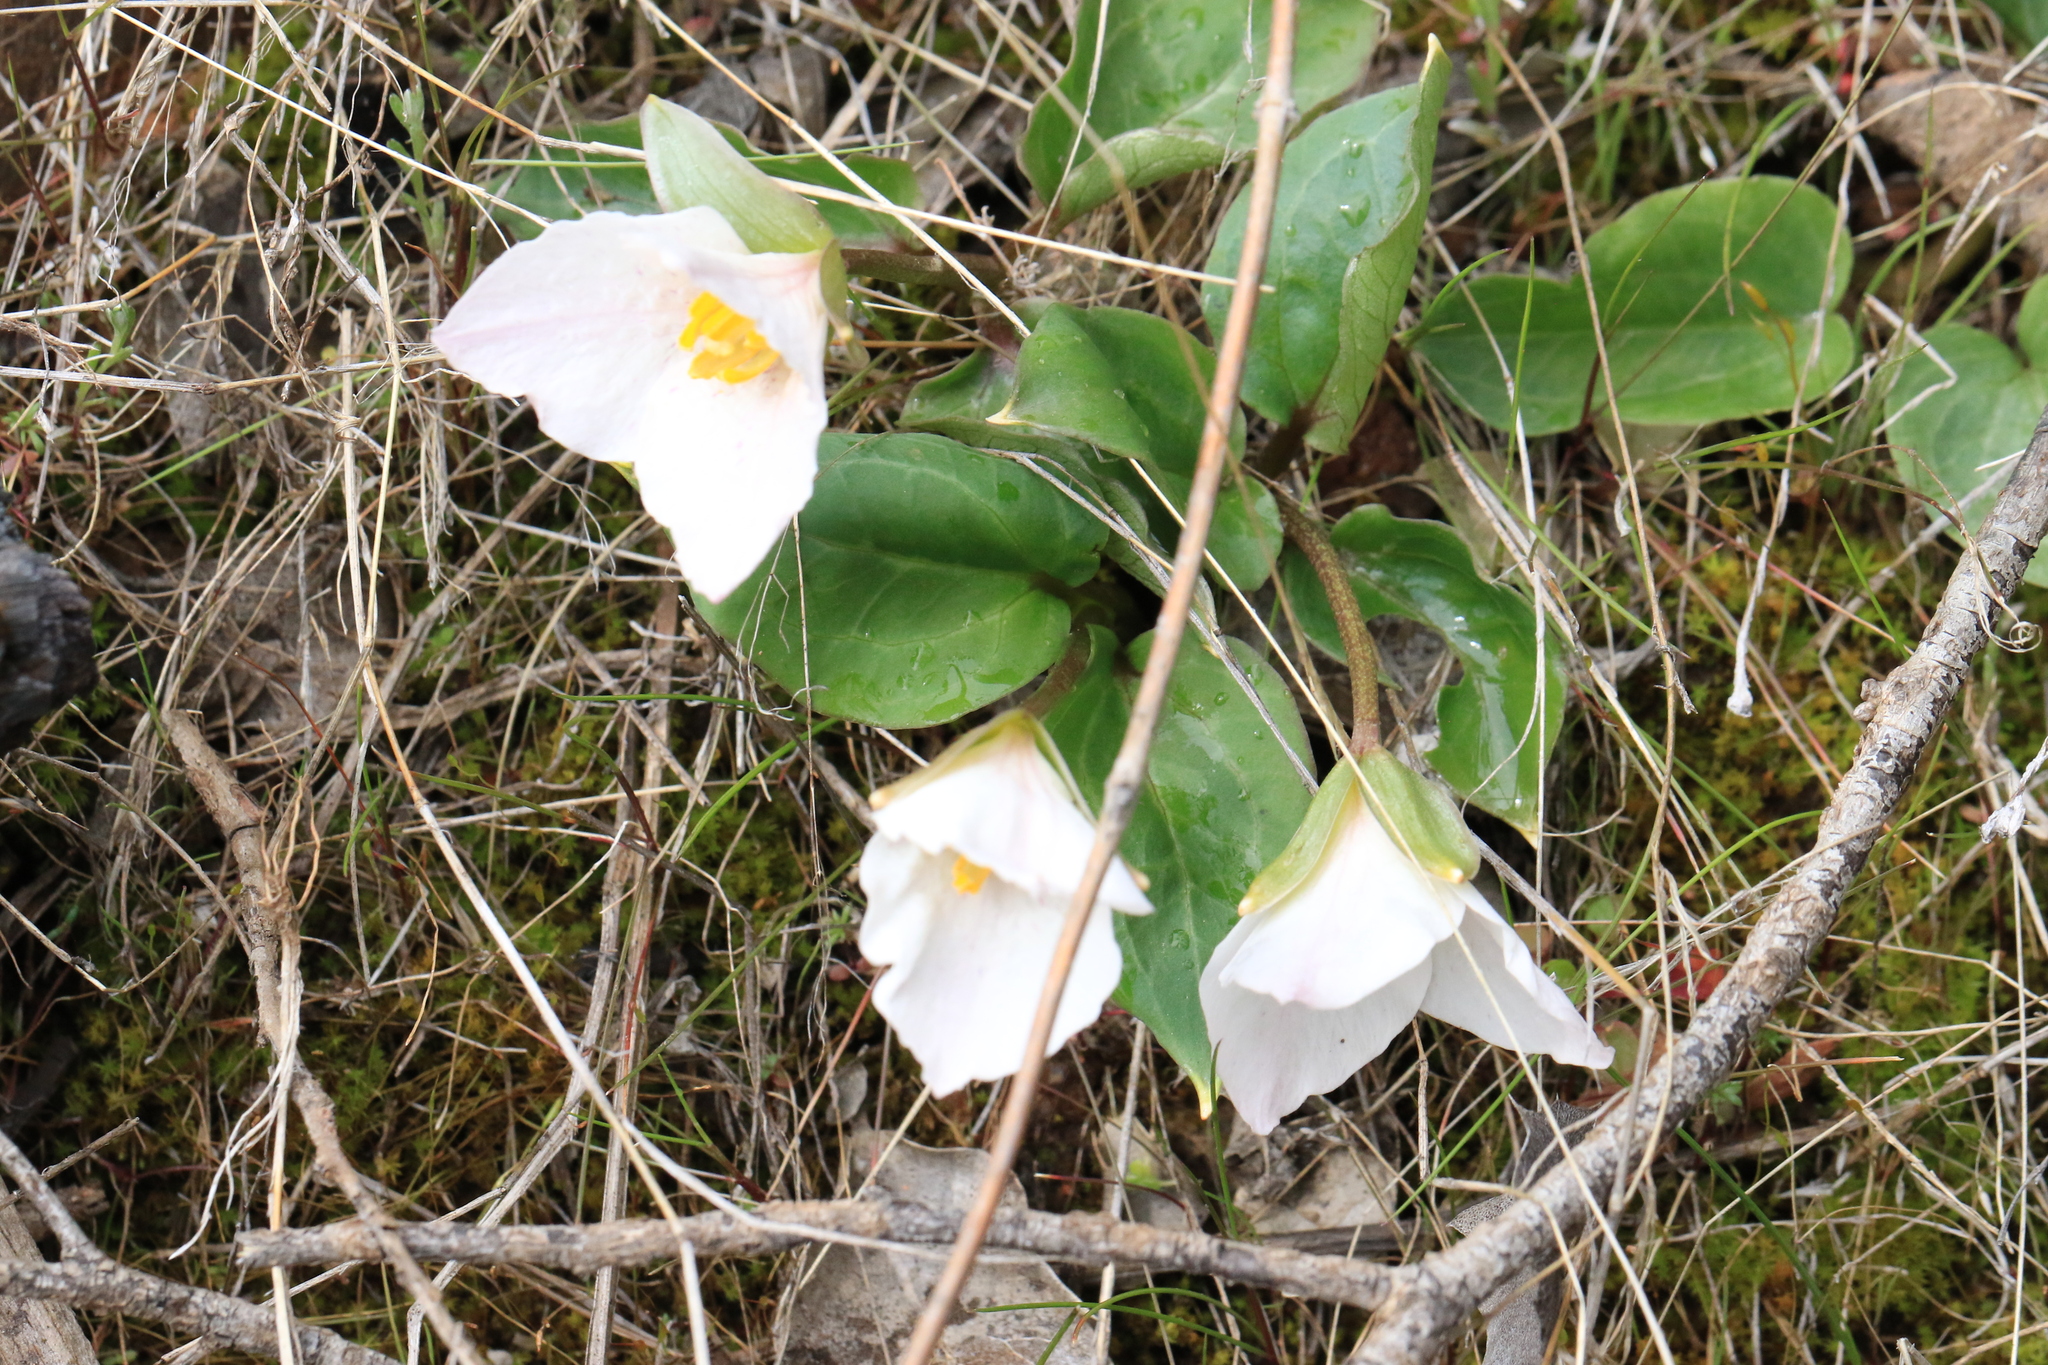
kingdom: Plantae
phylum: Tracheophyta
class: Liliopsida
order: Liliales
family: Melanthiaceae
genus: Pseudotrillium
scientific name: Pseudotrillium rivale
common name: Brook wakerobin
